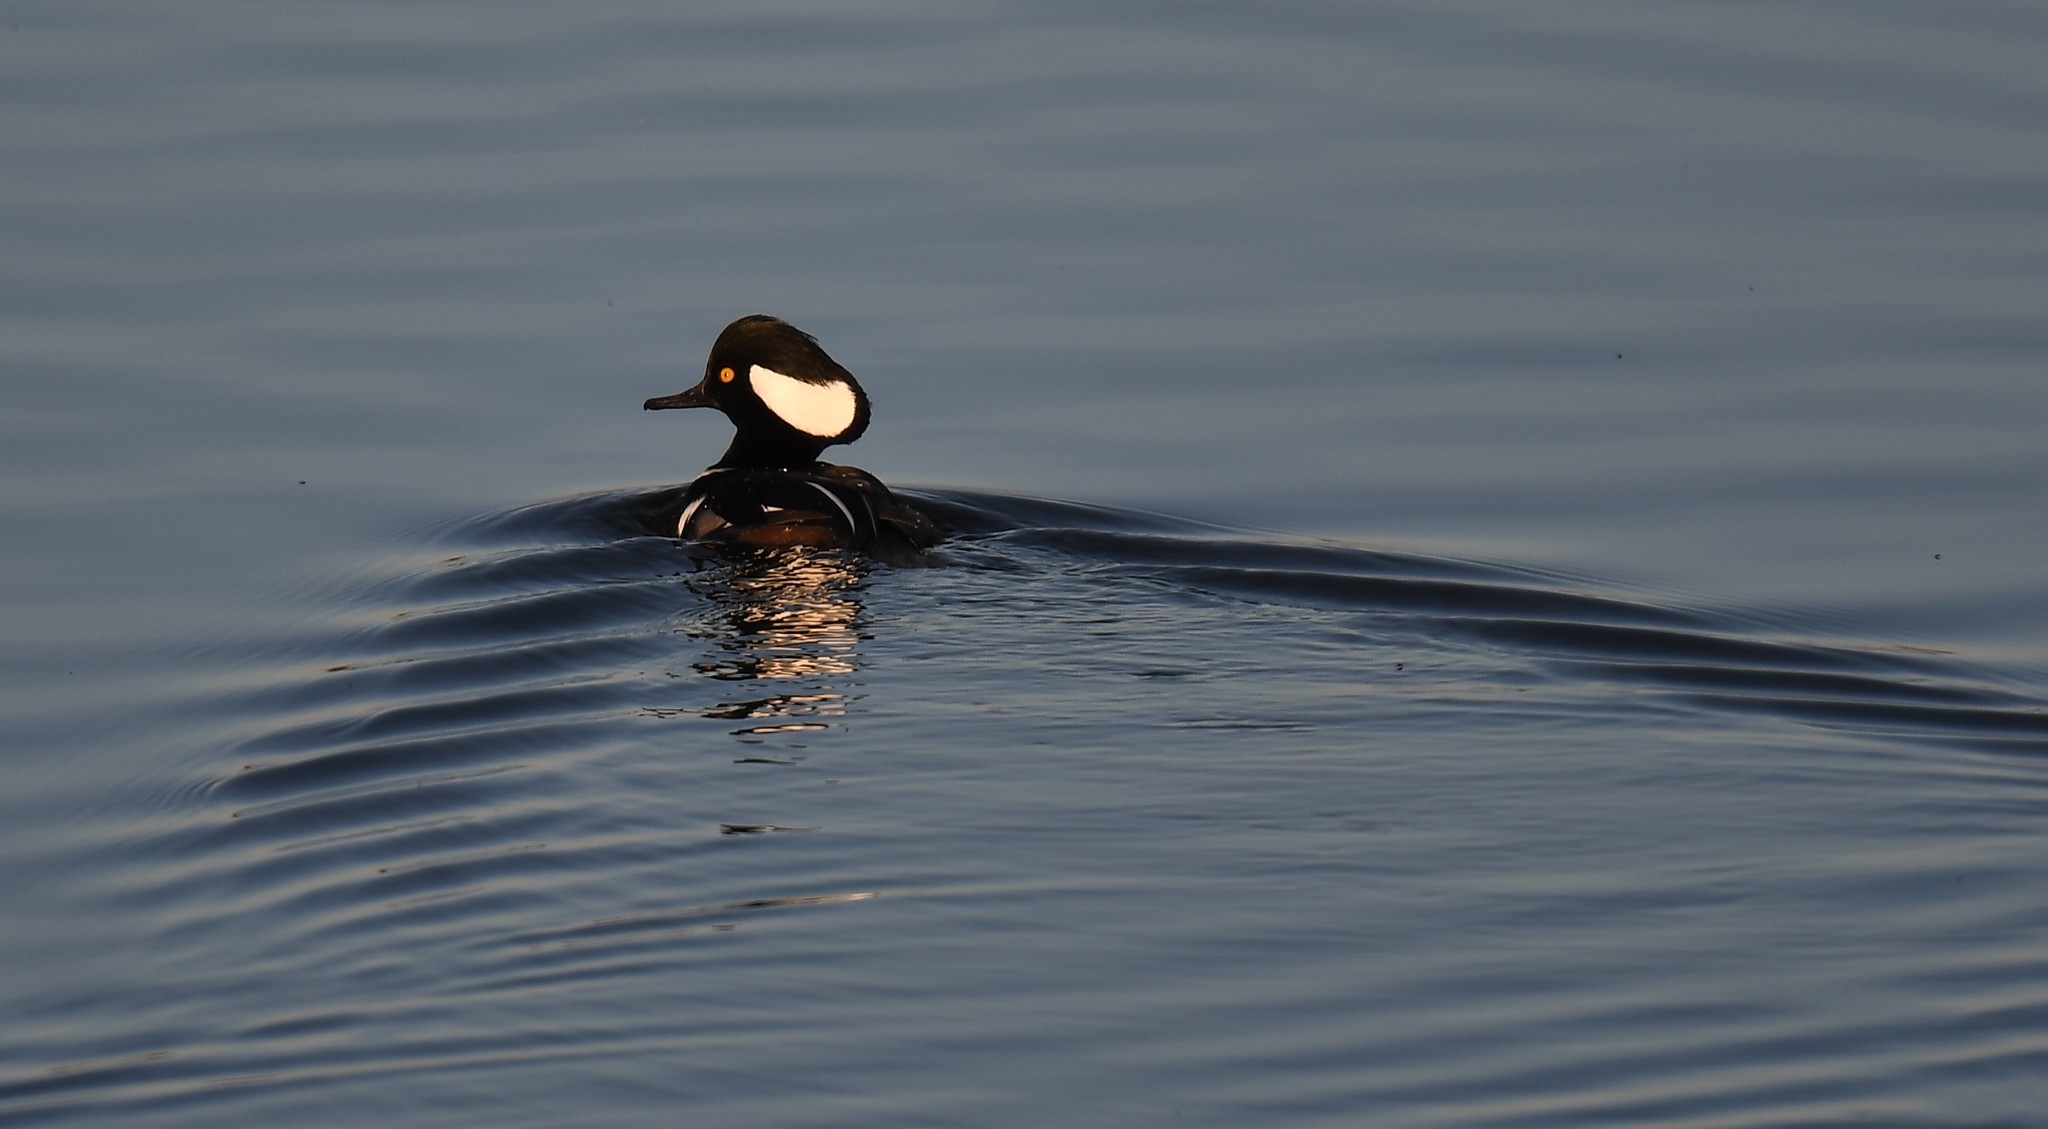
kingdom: Animalia
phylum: Chordata
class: Aves
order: Anseriformes
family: Anatidae
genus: Lophodytes
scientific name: Lophodytes cucullatus
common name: Hooded merganser
